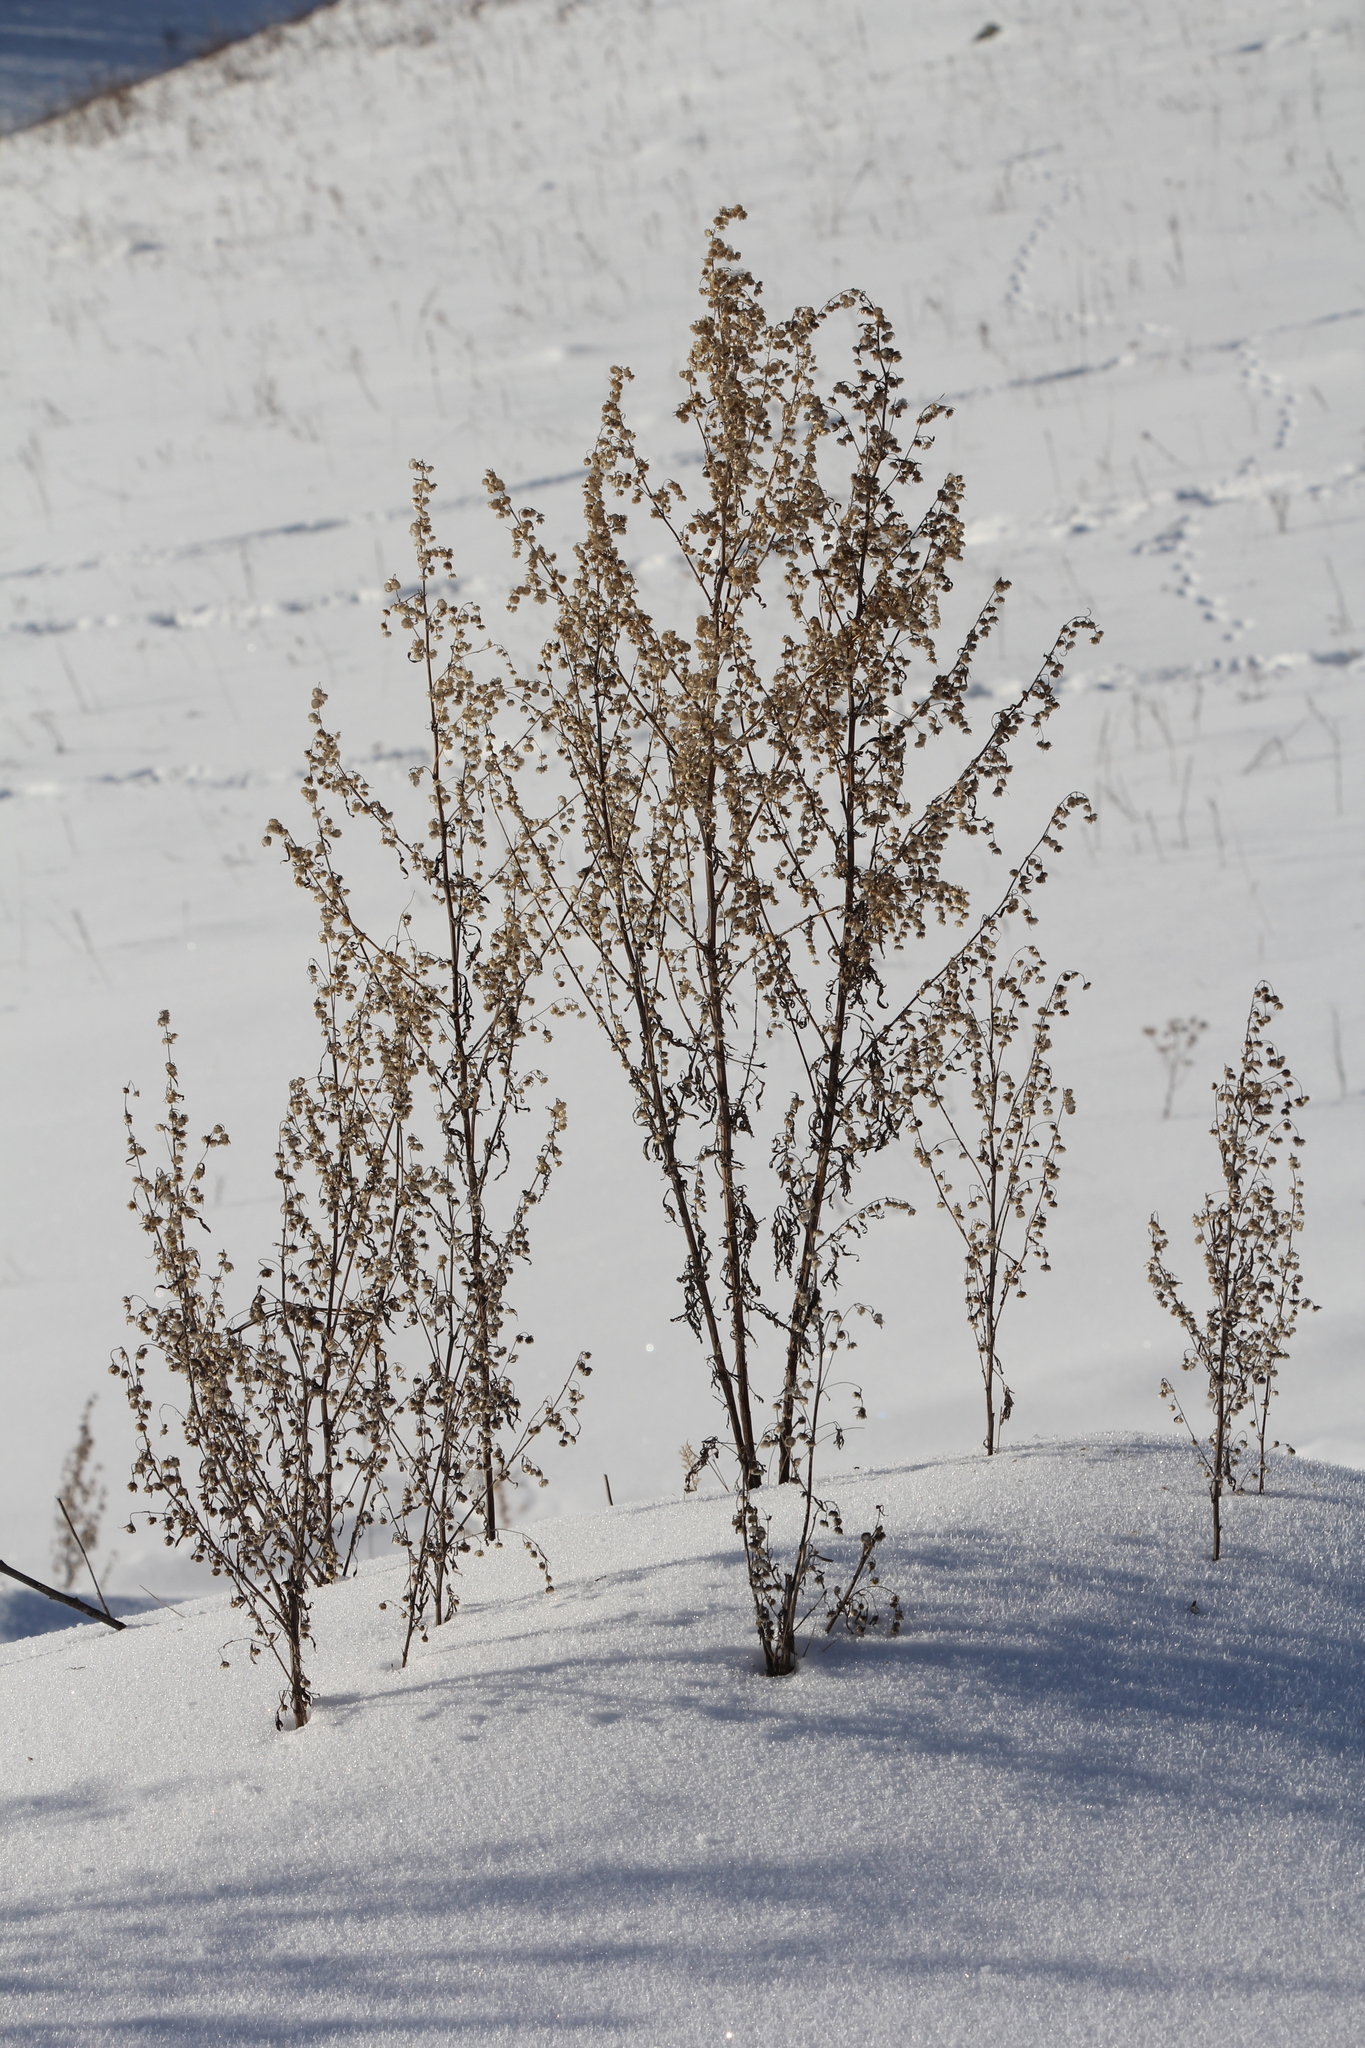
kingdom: Plantae
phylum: Tracheophyta
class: Magnoliopsida
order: Asterales
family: Asteraceae
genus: Artemisia
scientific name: Artemisia sieversiana
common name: Sieversian wormwood
